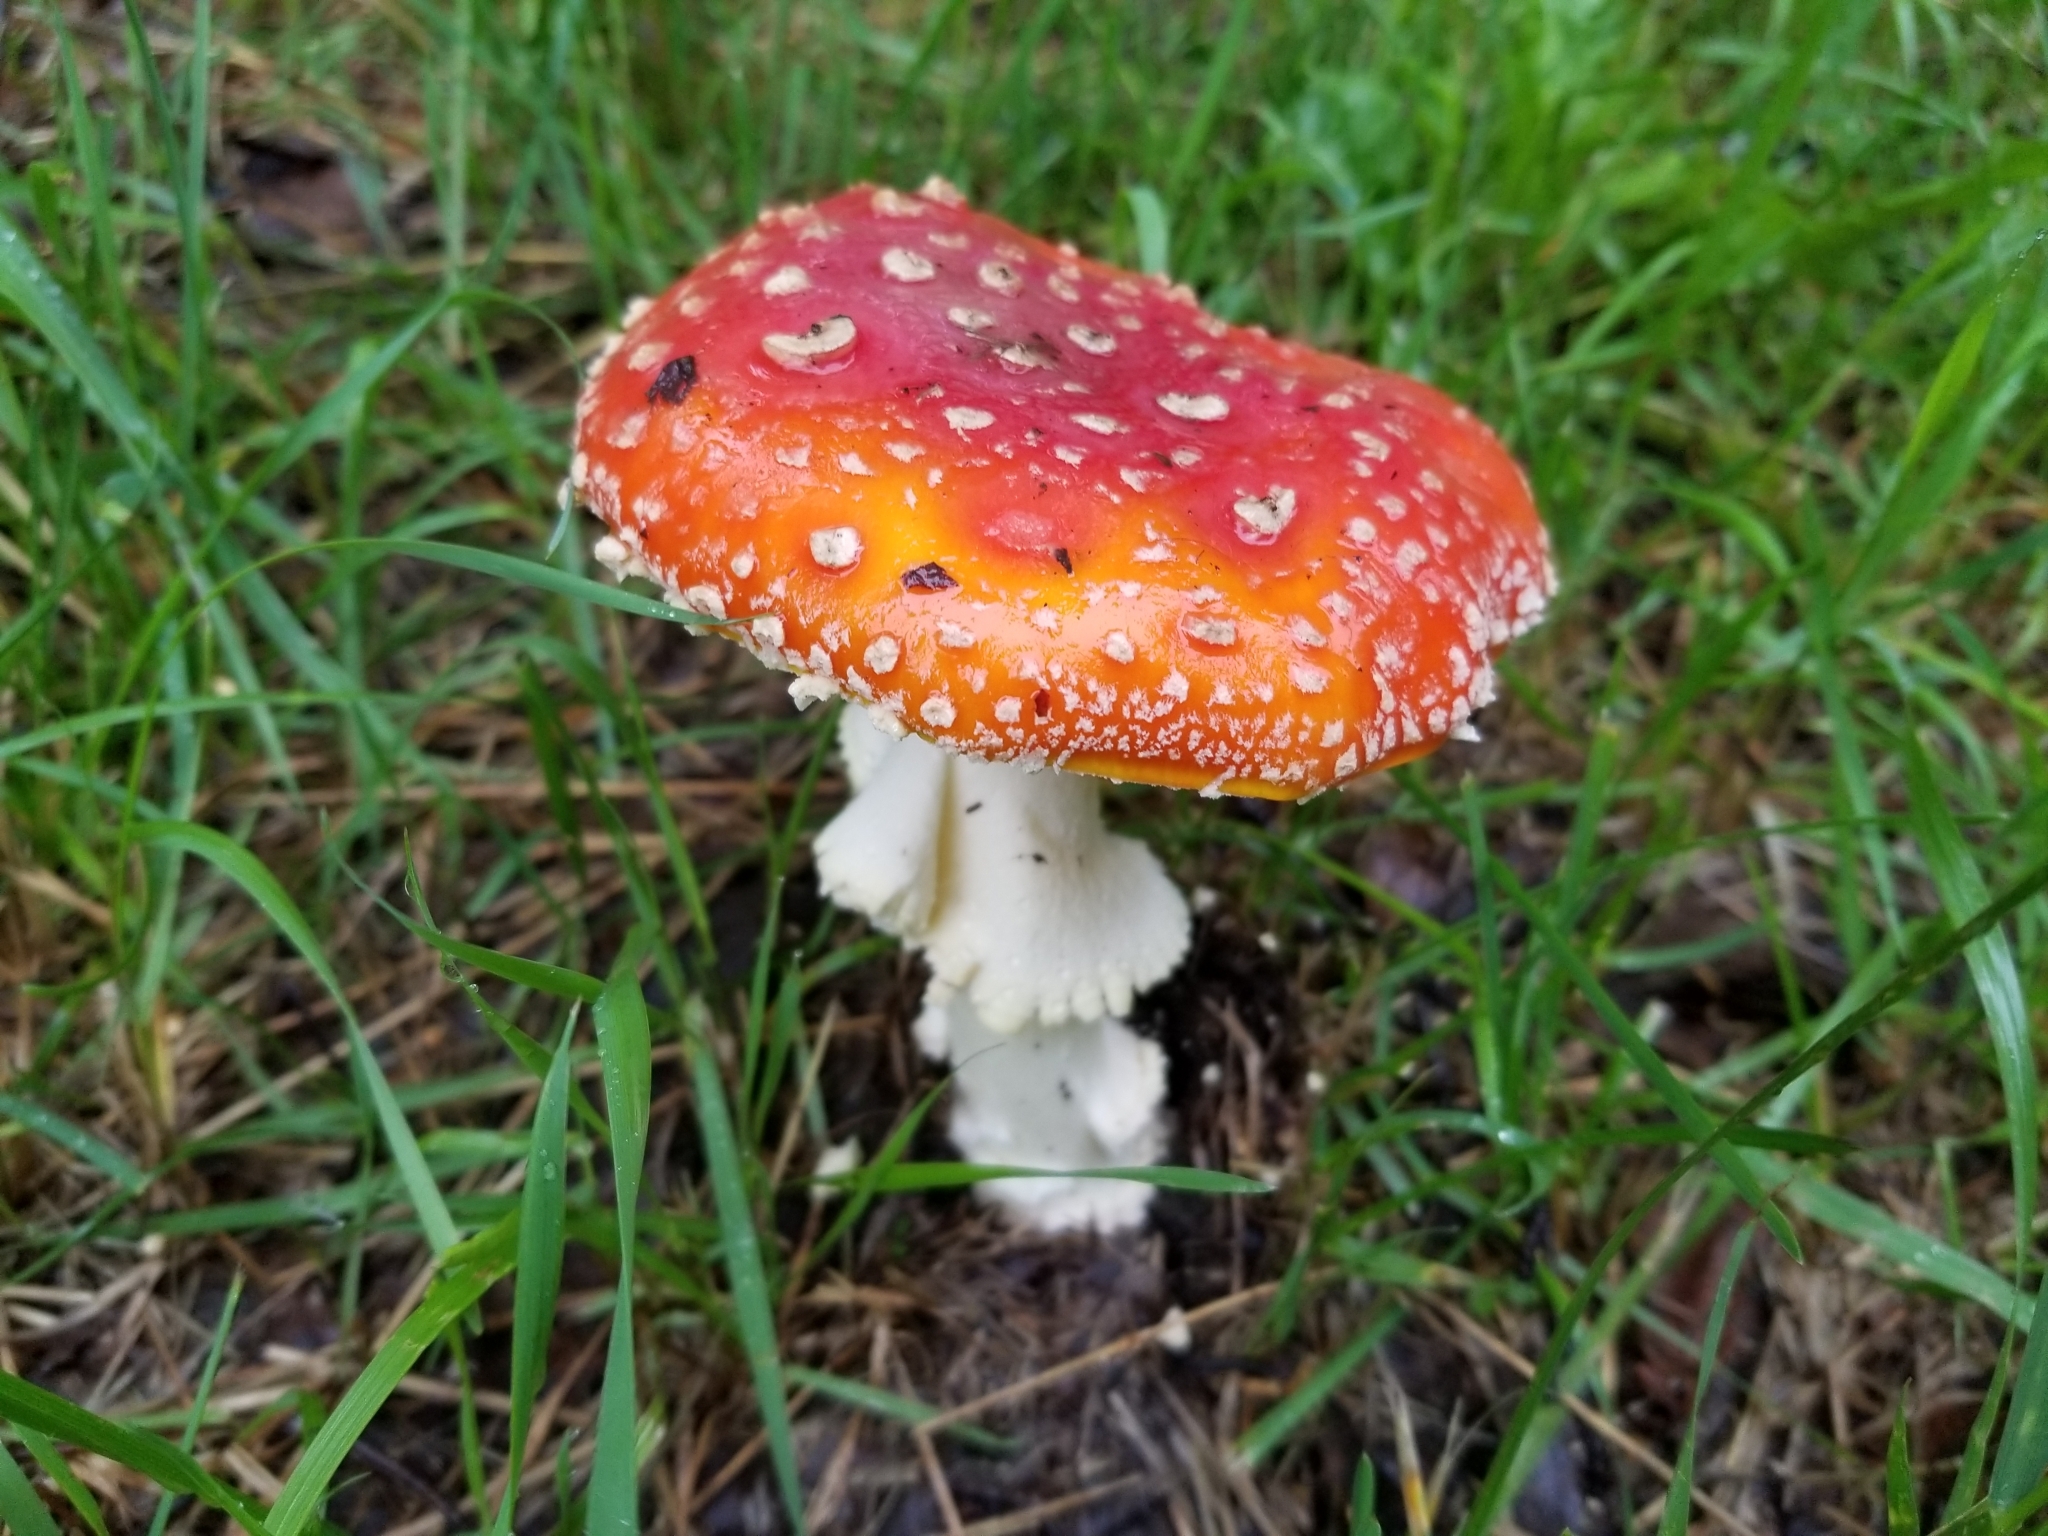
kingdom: Fungi
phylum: Basidiomycota
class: Agaricomycetes
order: Agaricales
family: Amanitaceae
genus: Amanita
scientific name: Amanita muscaria
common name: Fly agaric
